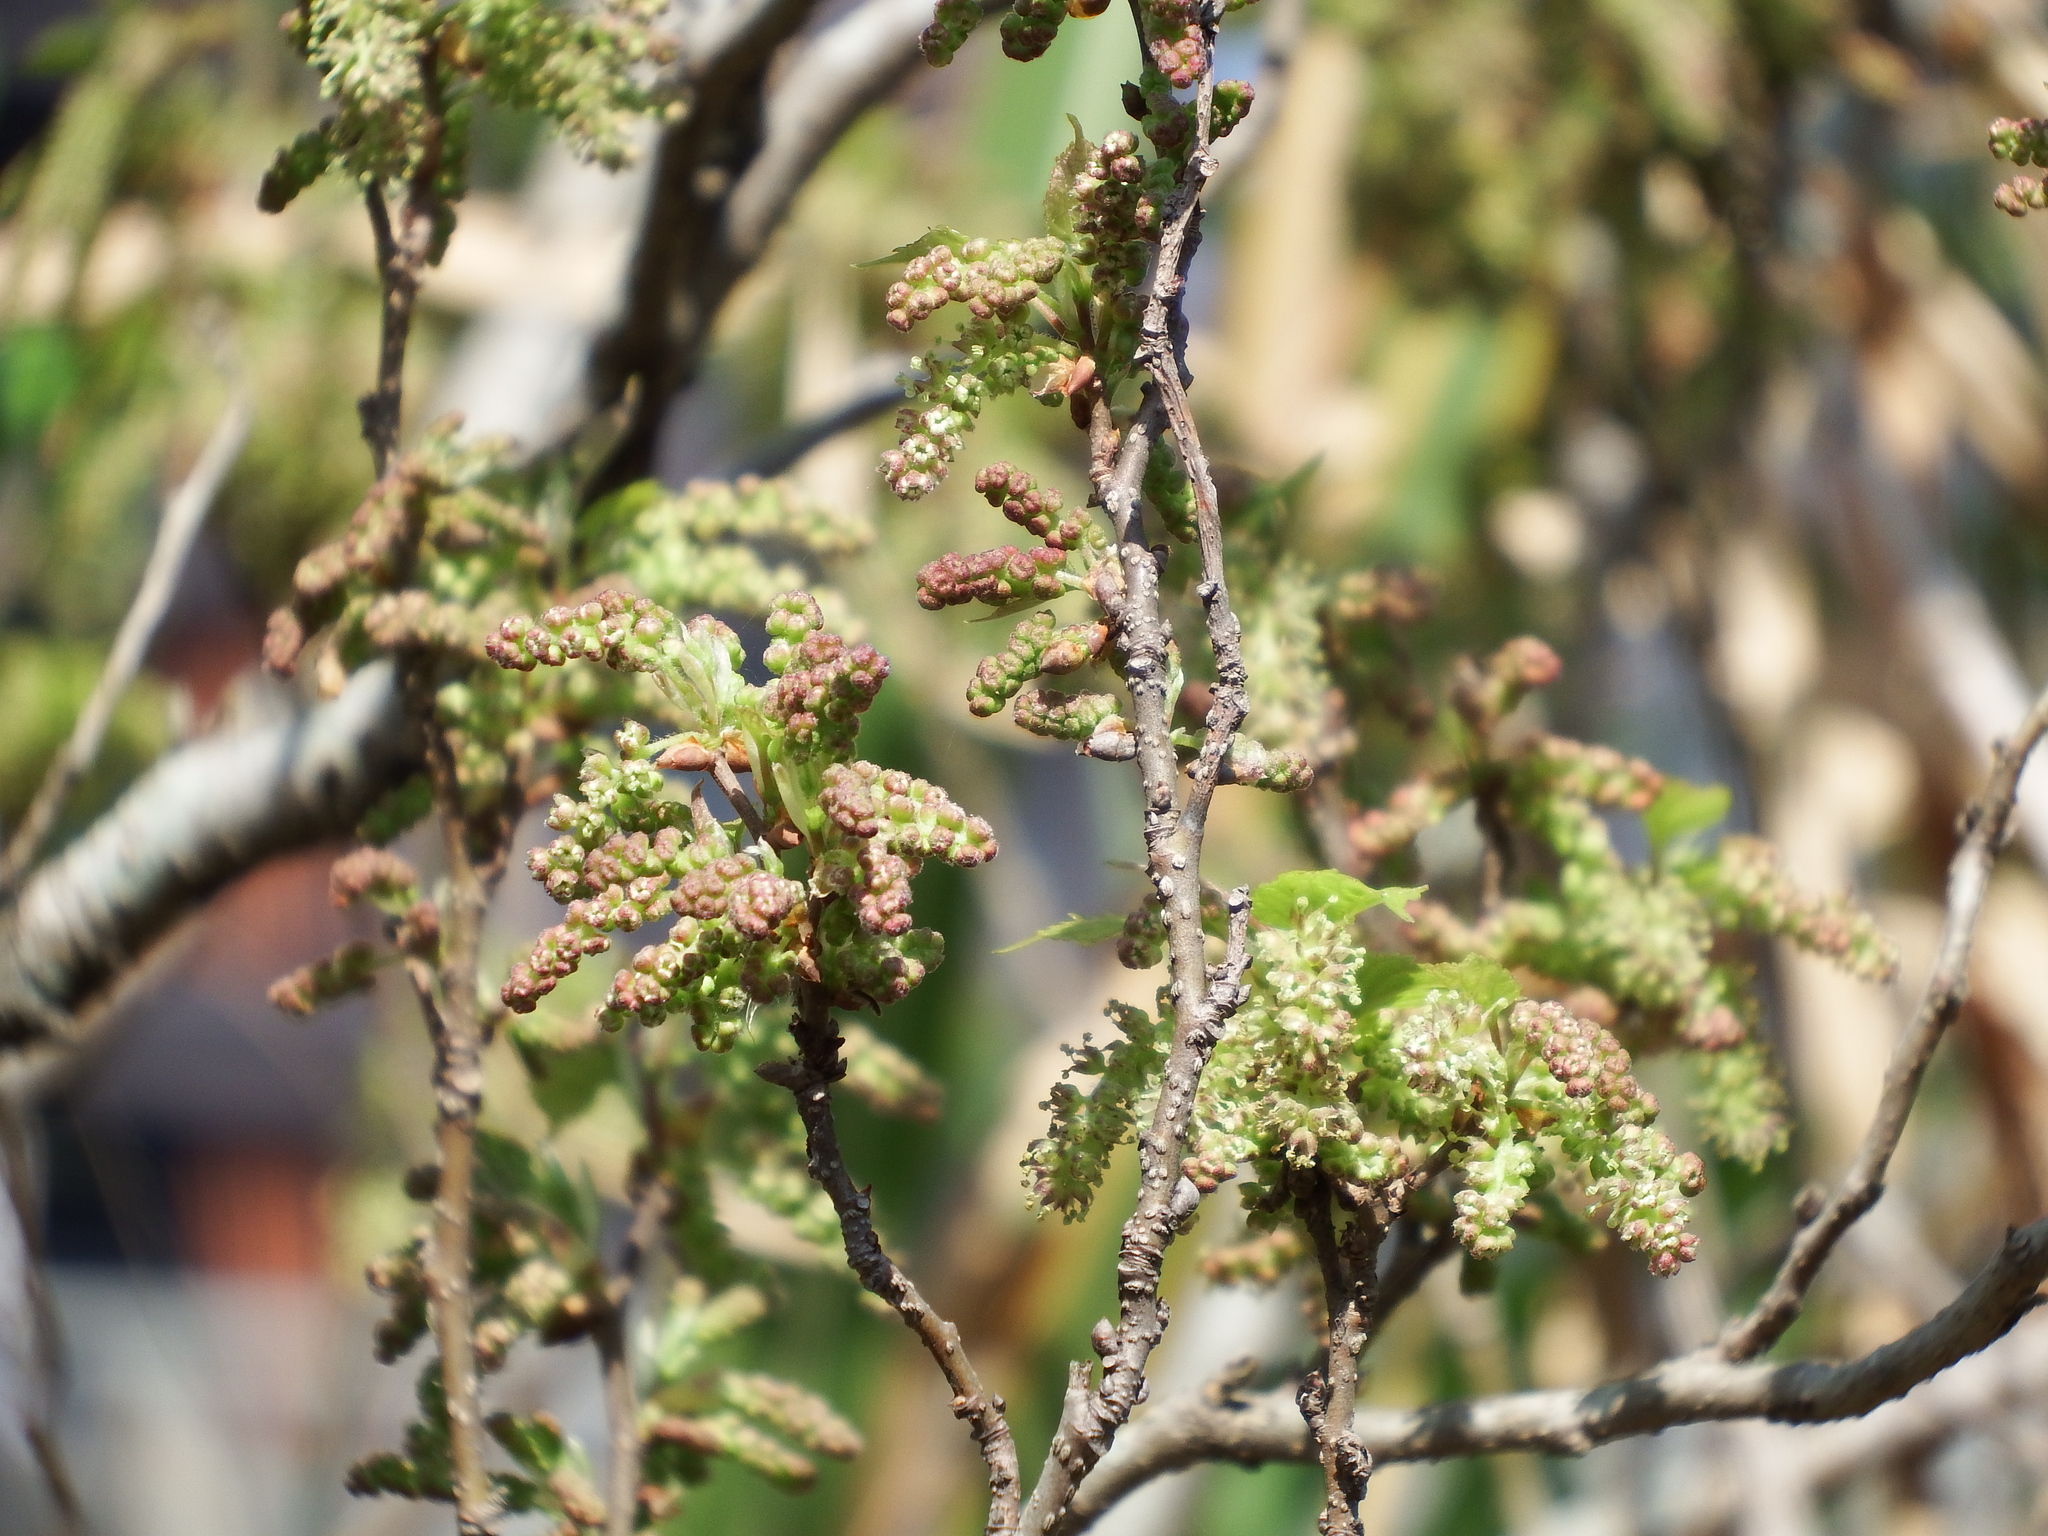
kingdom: Plantae
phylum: Tracheophyta
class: Magnoliopsida
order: Rosales
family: Moraceae
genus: Morus
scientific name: Morus indica
